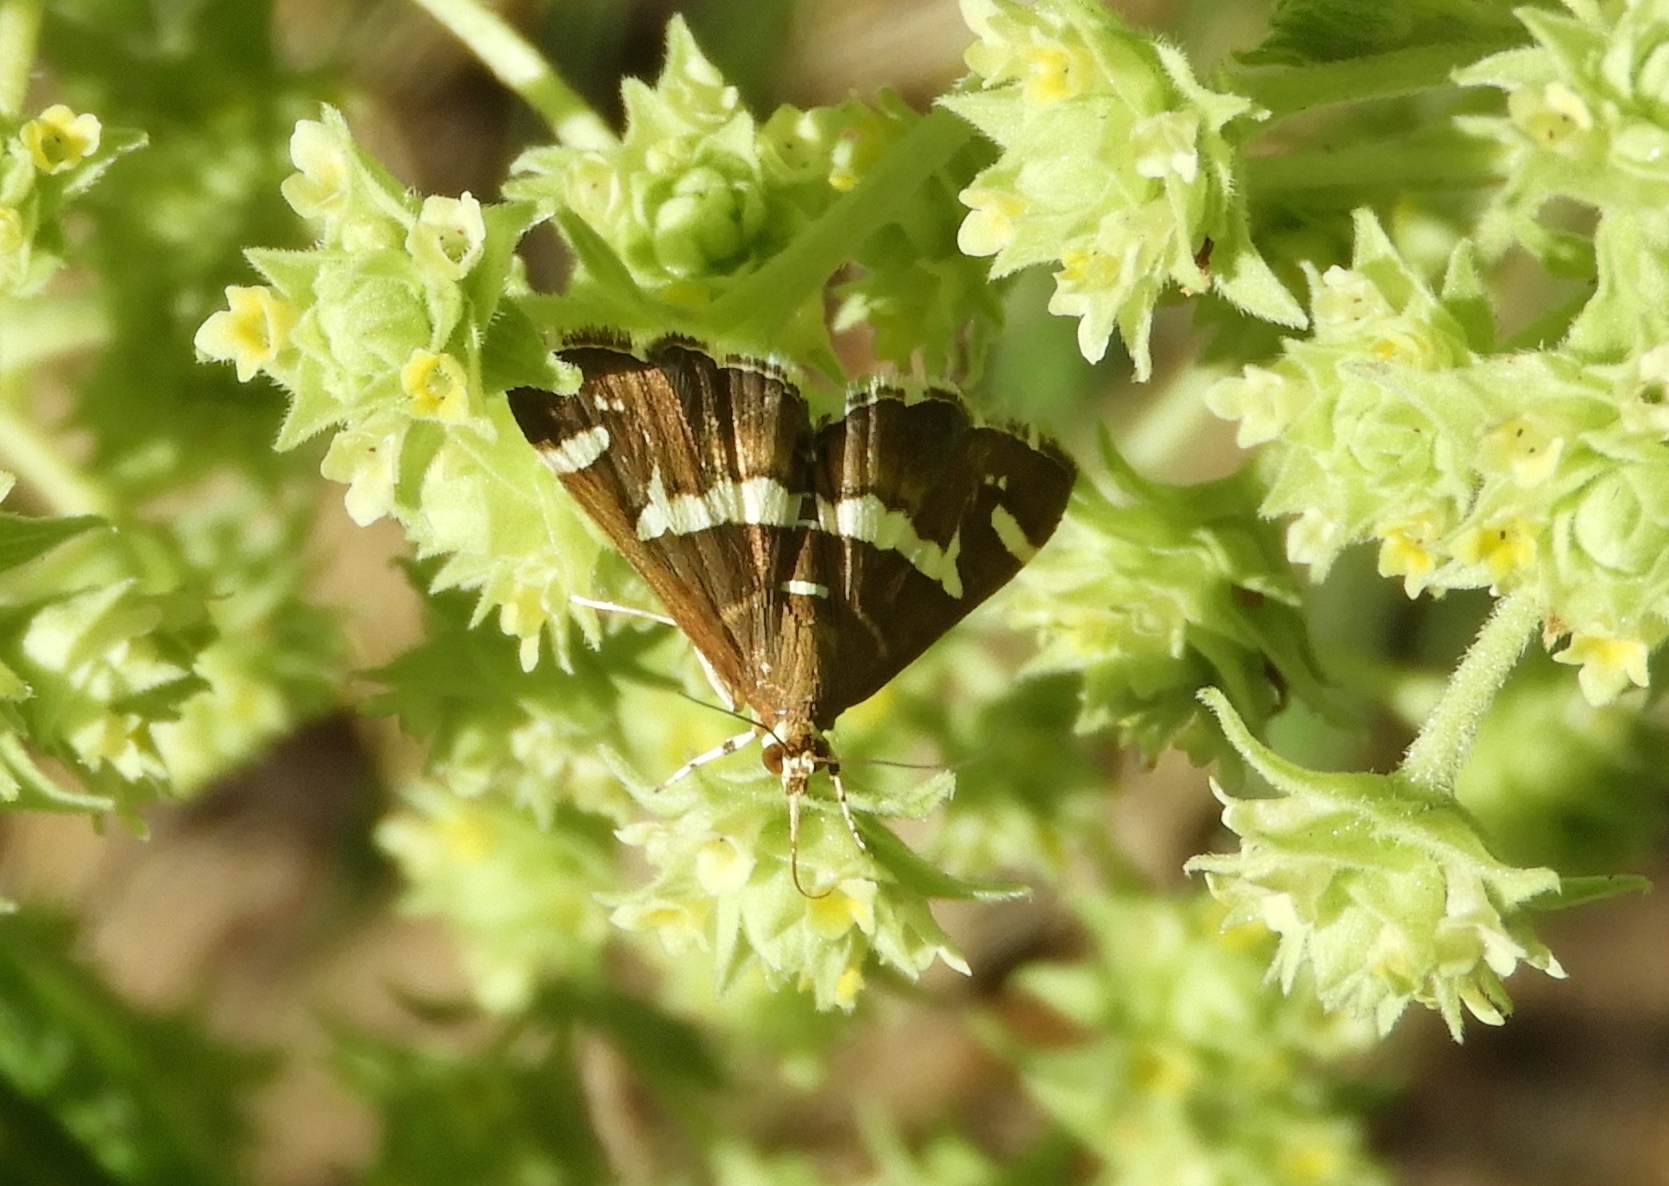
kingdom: Animalia
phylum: Arthropoda
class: Insecta
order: Lepidoptera
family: Crambidae
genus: Spoladea
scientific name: Spoladea recurvalis
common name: Beet webworm moth
